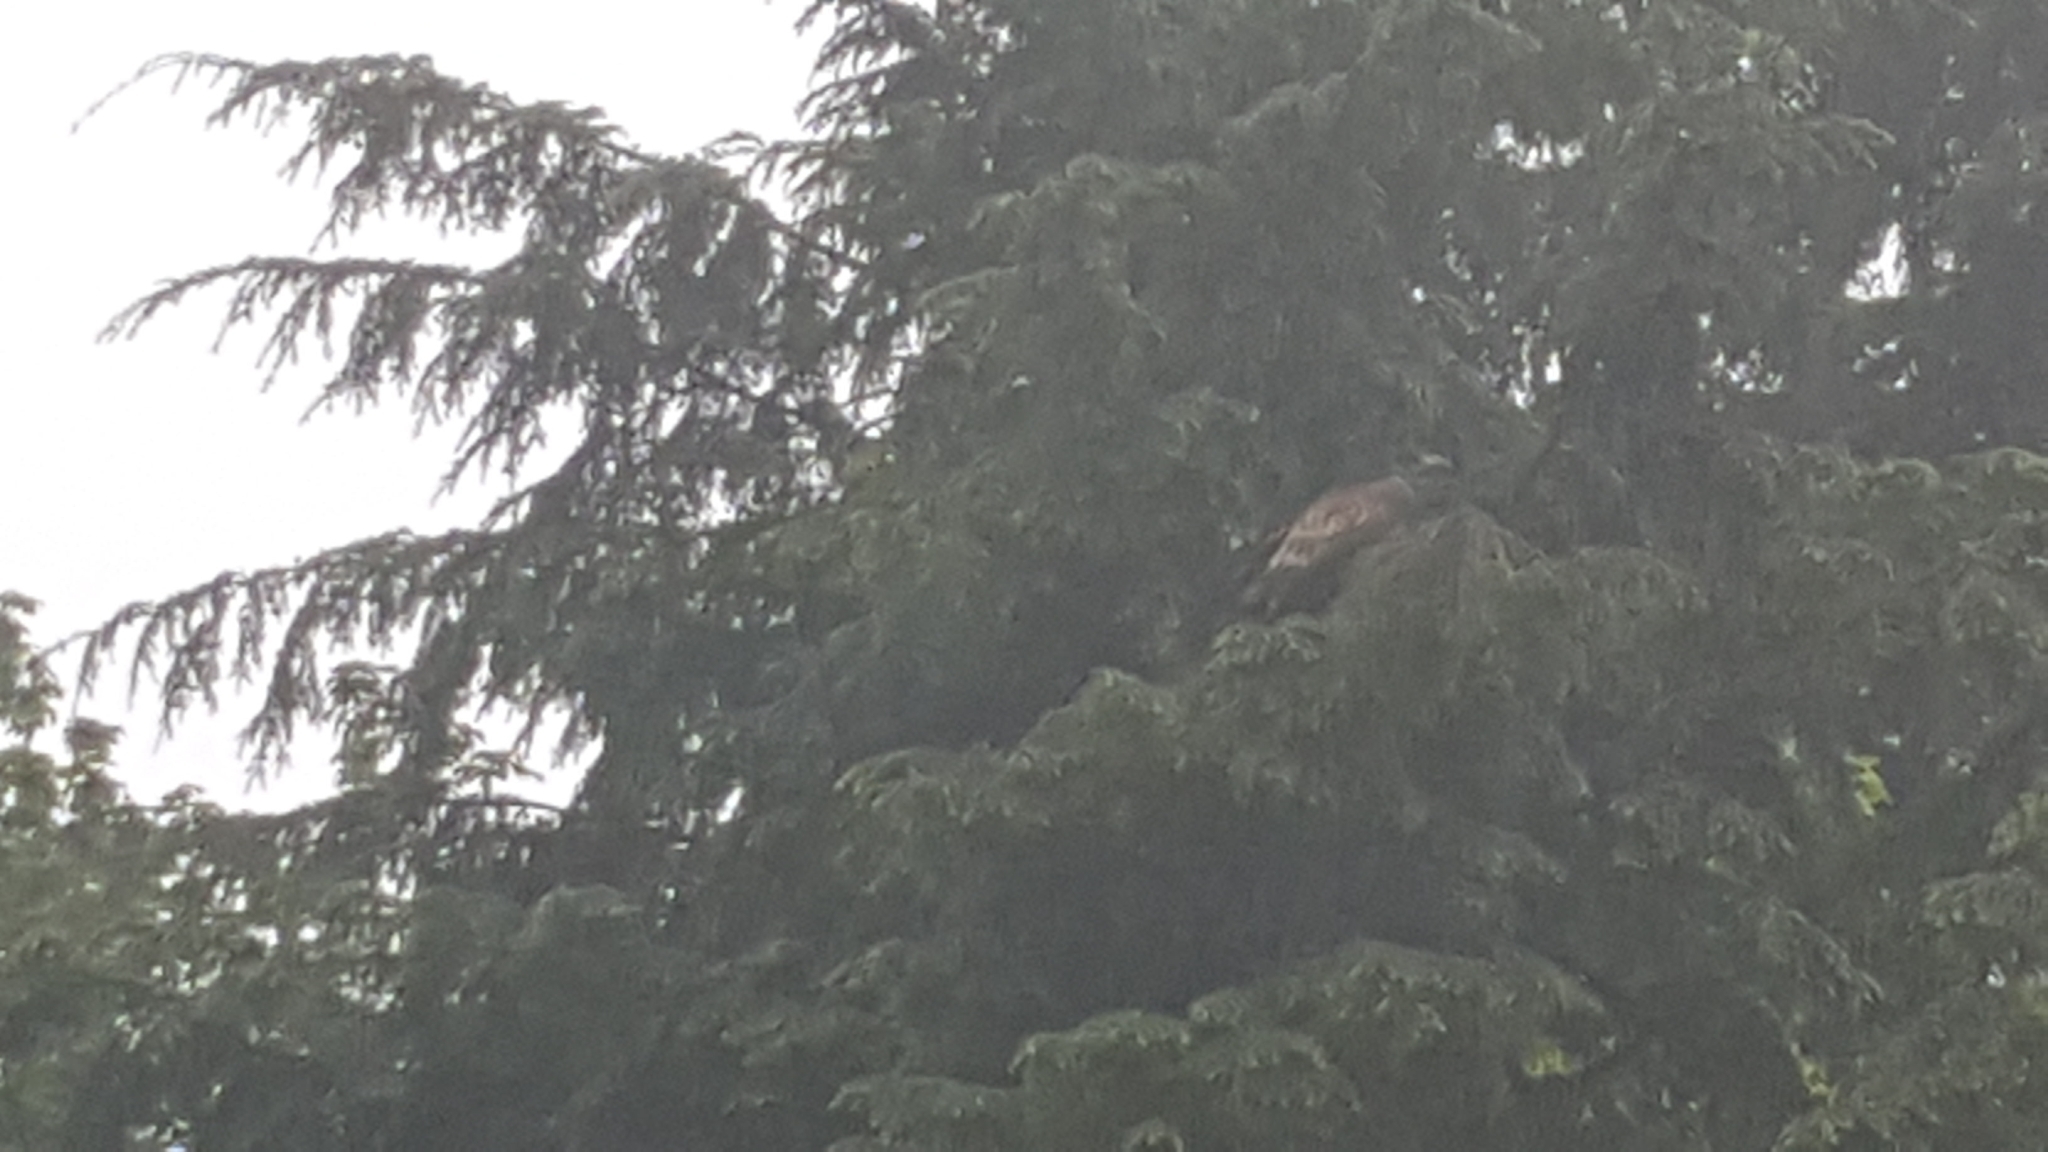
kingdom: Animalia
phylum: Chordata
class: Aves
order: Accipitriformes
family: Accipitridae
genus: Haliaeetus
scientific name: Haliaeetus leucocephalus
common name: Bald eagle
